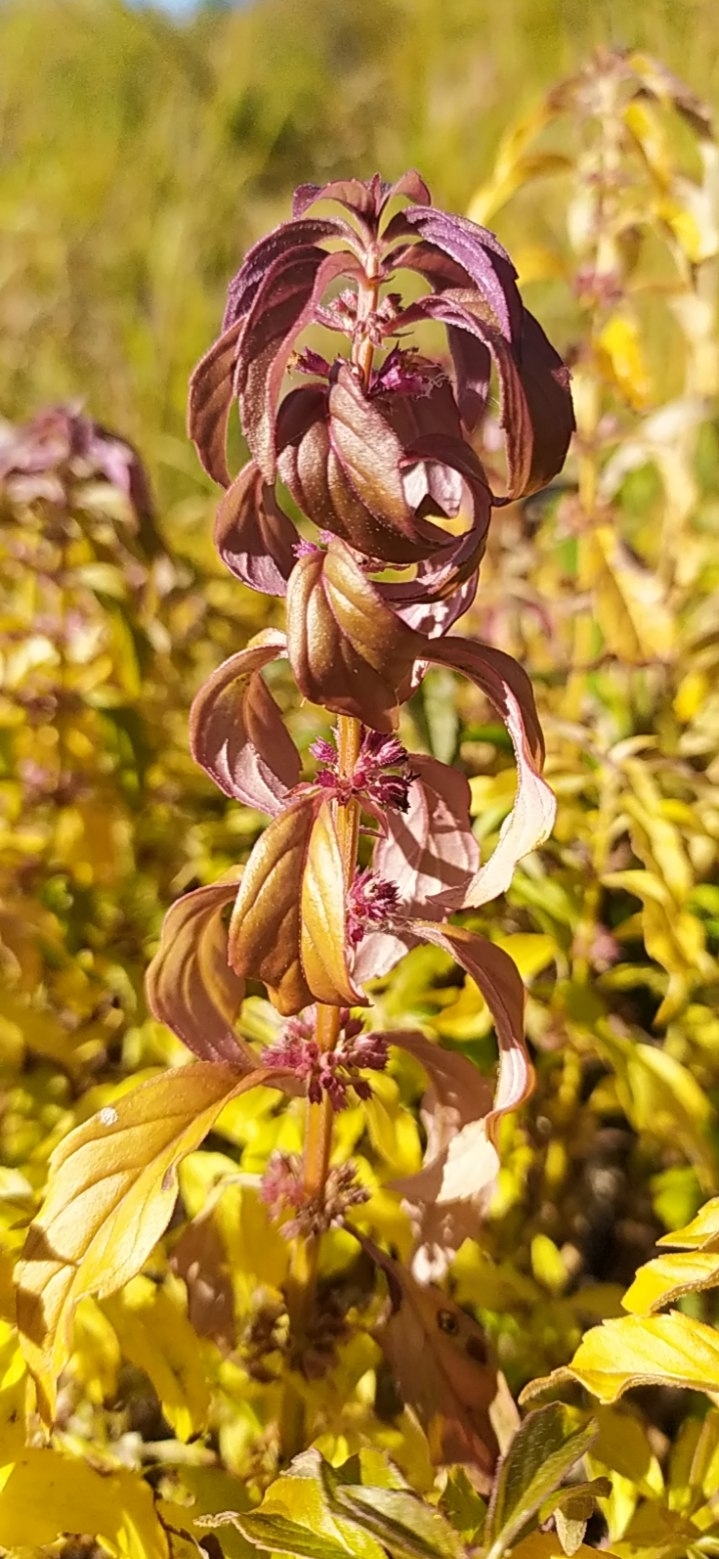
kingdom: Plantae
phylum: Tracheophyta
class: Magnoliopsida
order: Lamiales
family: Lamiaceae
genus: Mentha
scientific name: Mentha arvensis
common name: Corn mint
